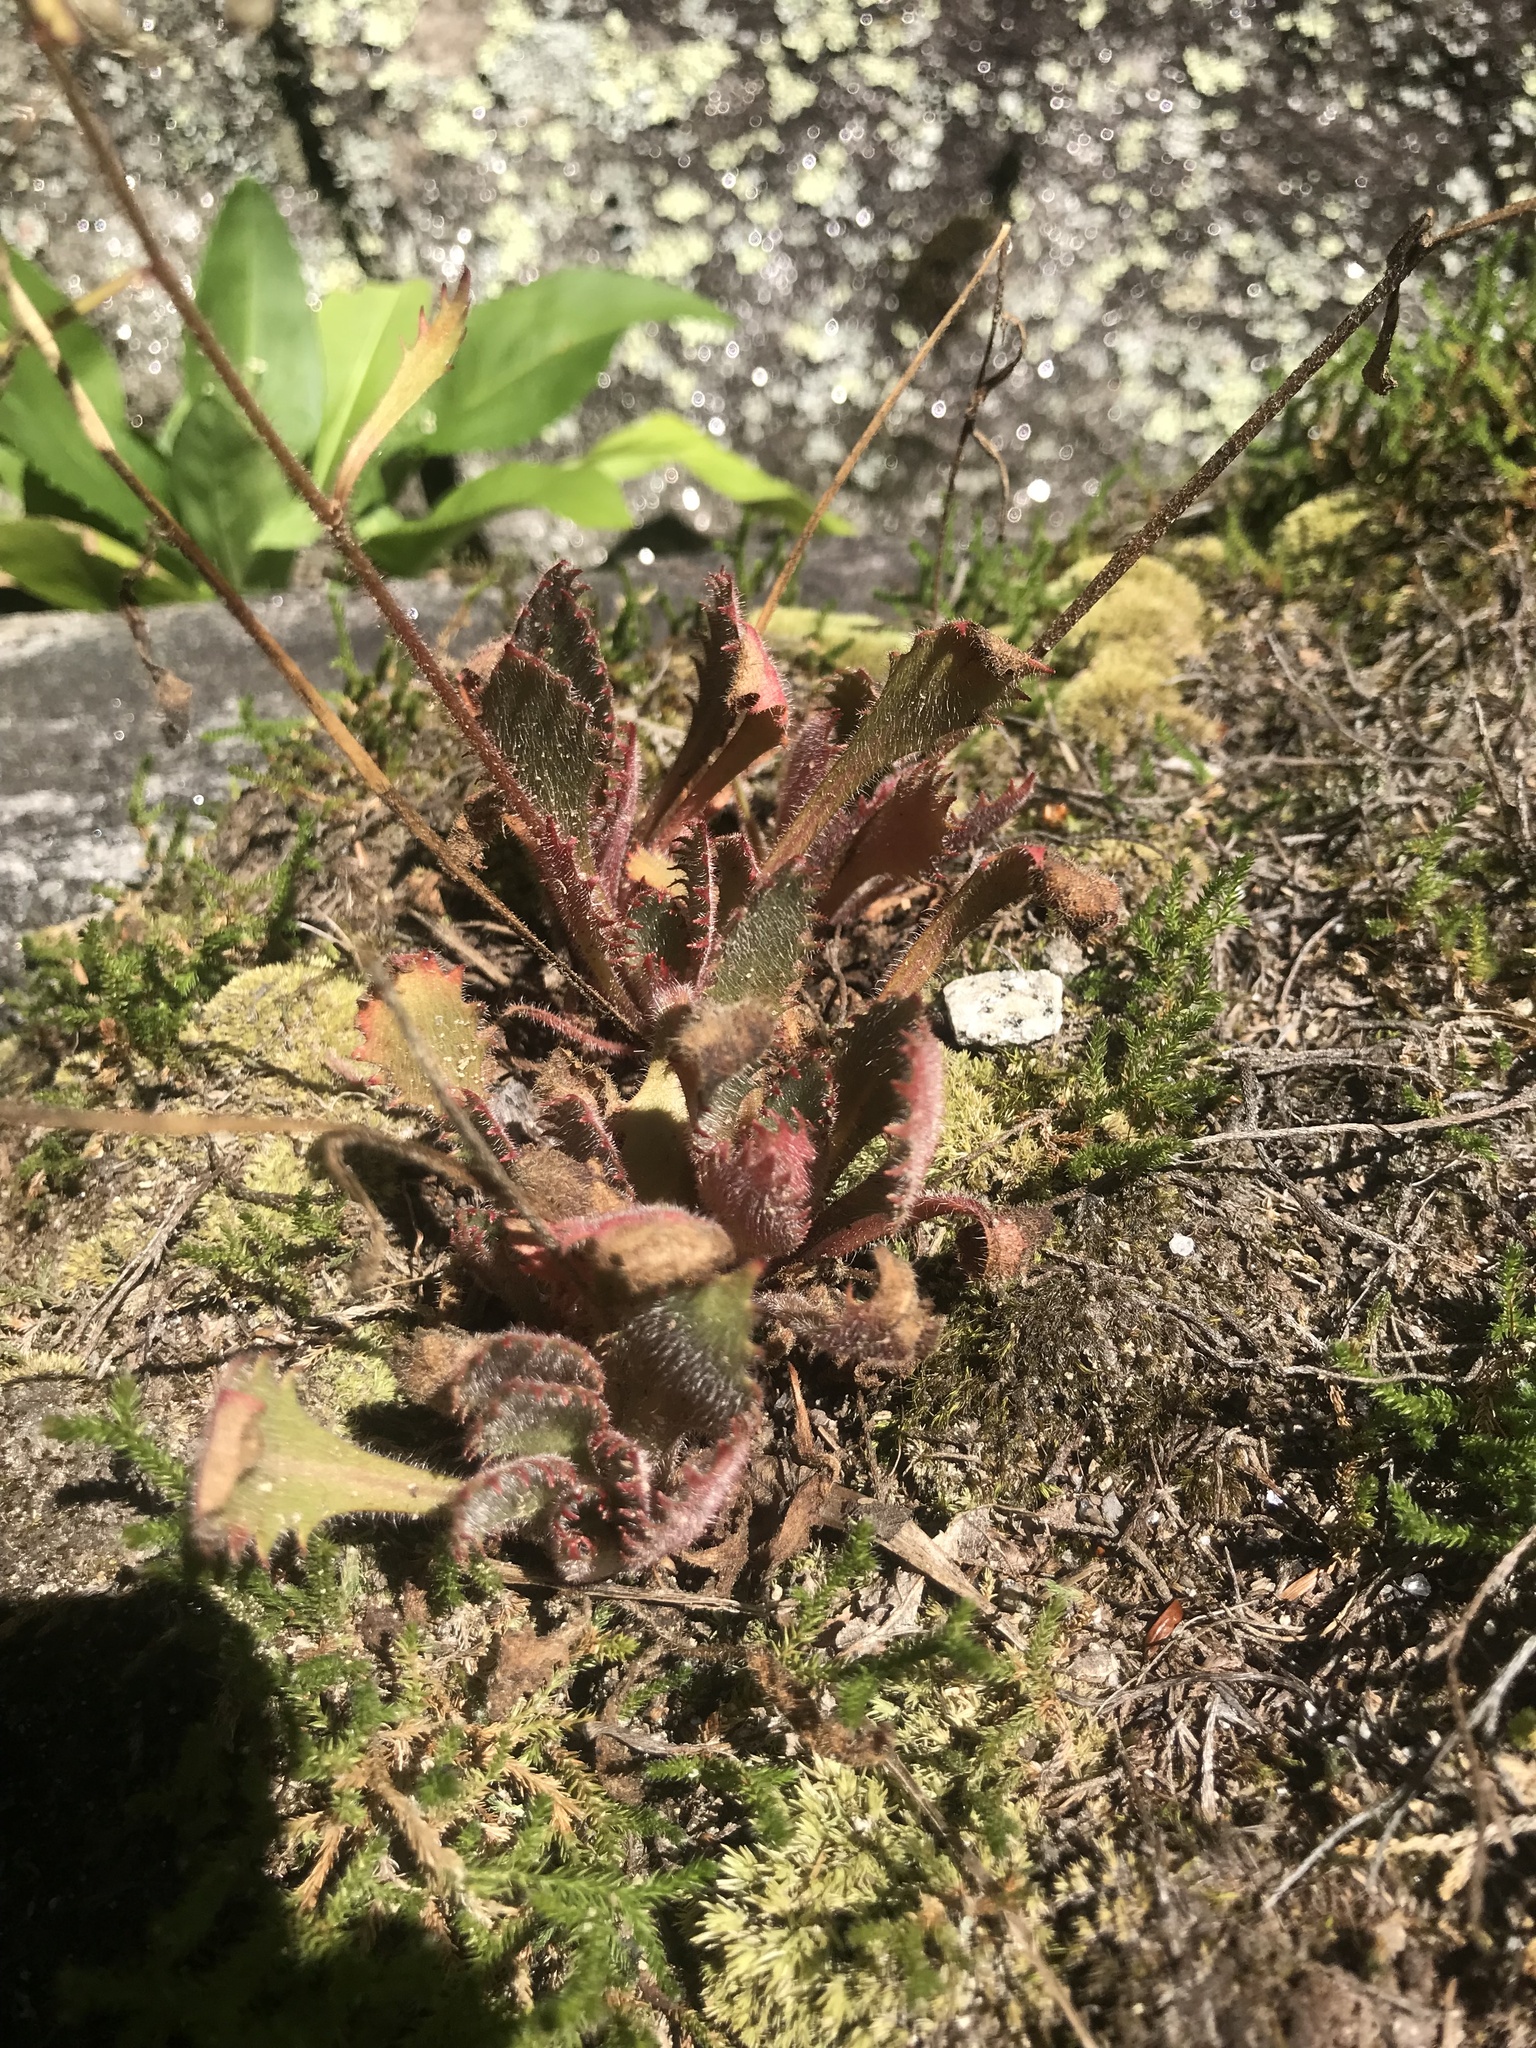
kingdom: Plantae
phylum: Tracheophyta
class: Magnoliopsida
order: Saxifragales
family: Saxifragaceae
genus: Micranthes
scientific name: Micranthes petiolaris
